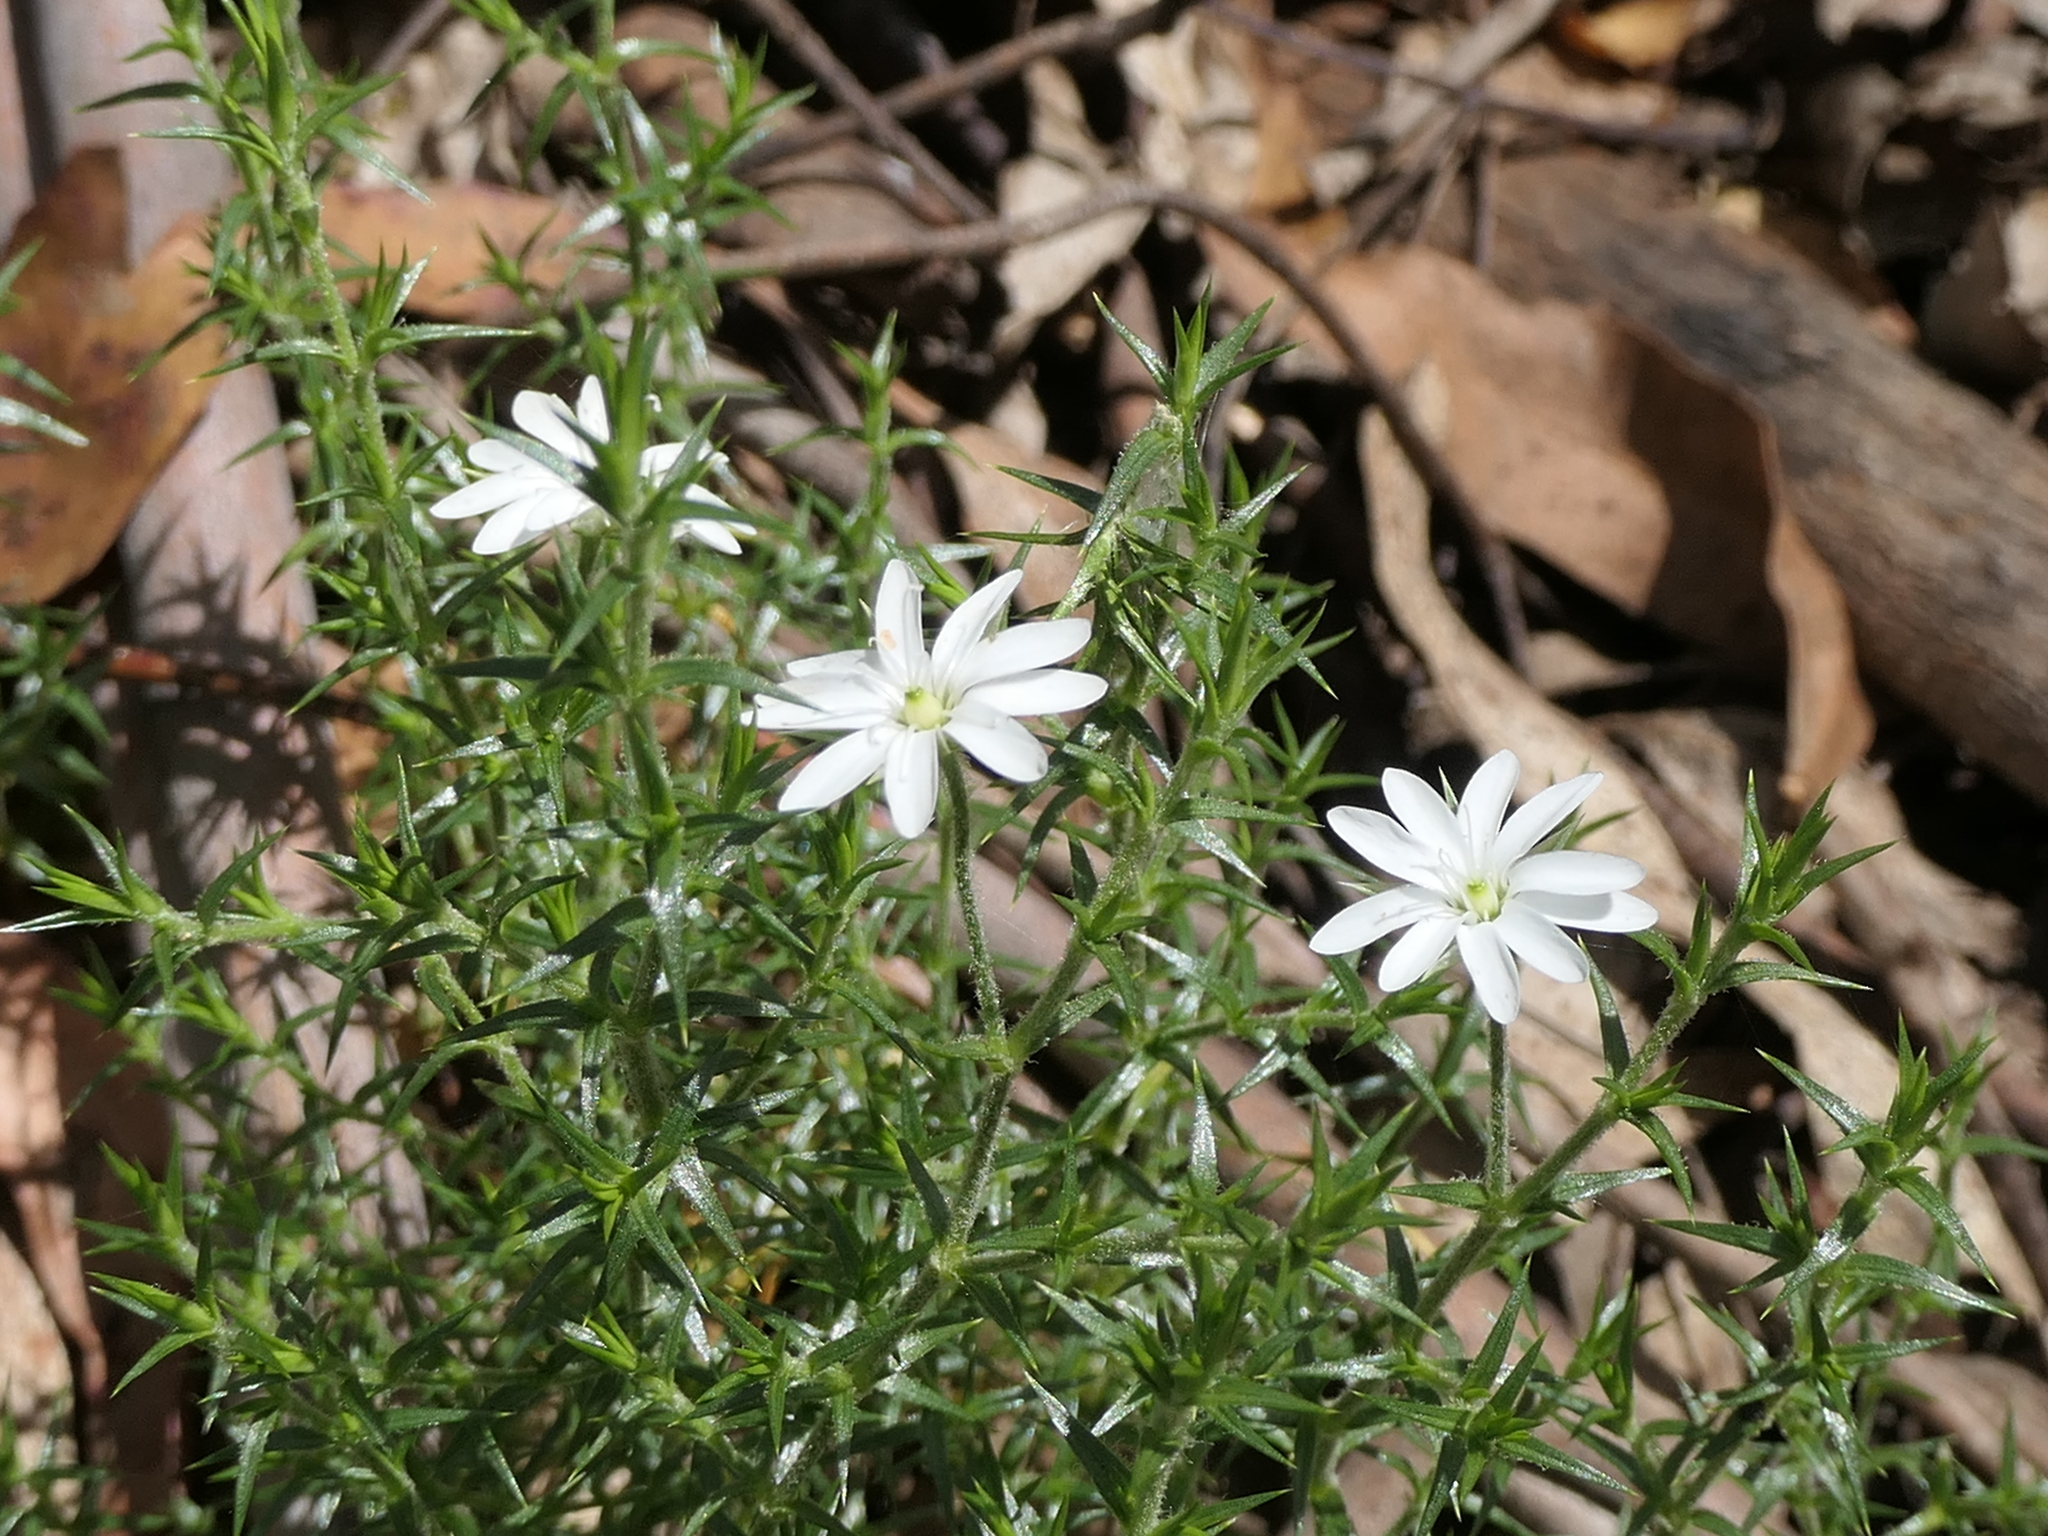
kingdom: Plantae
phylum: Tracheophyta
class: Magnoliopsida
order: Caryophyllales
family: Caryophyllaceae
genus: Stellaria
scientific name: Stellaria pungens
